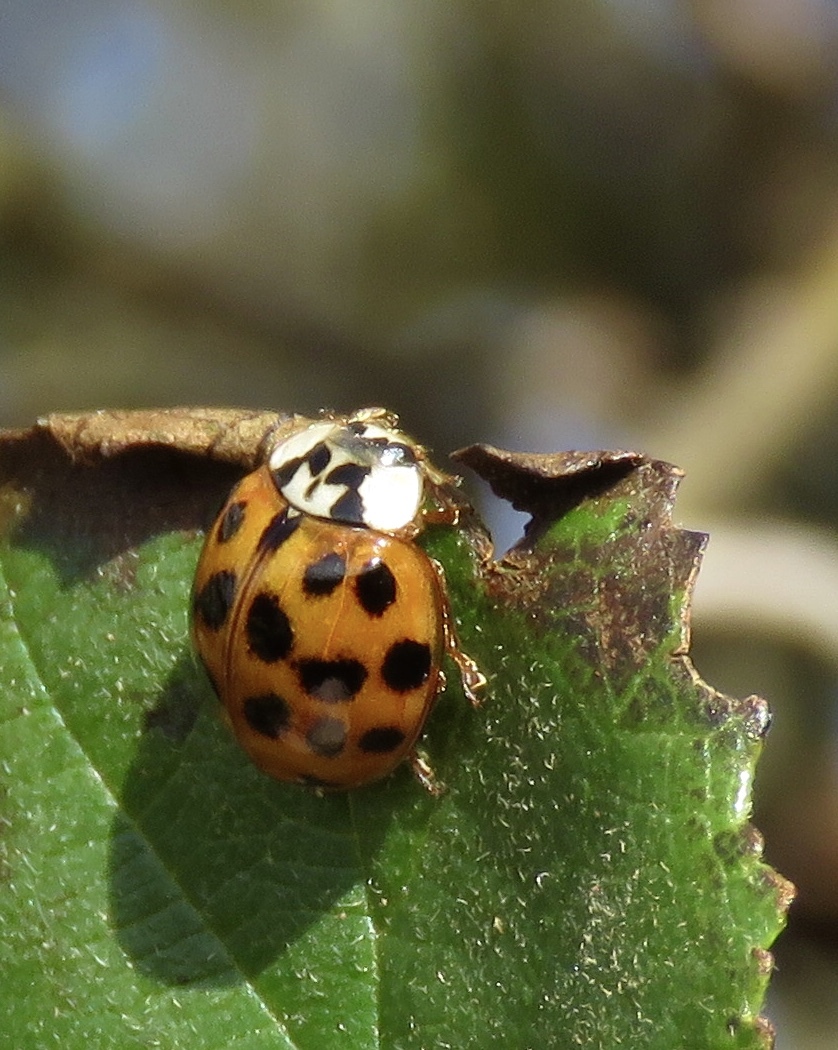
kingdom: Animalia
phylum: Arthropoda
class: Insecta
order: Coleoptera
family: Coccinellidae
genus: Harmonia
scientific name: Harmonia axyridis
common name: Harlequin ladybird
